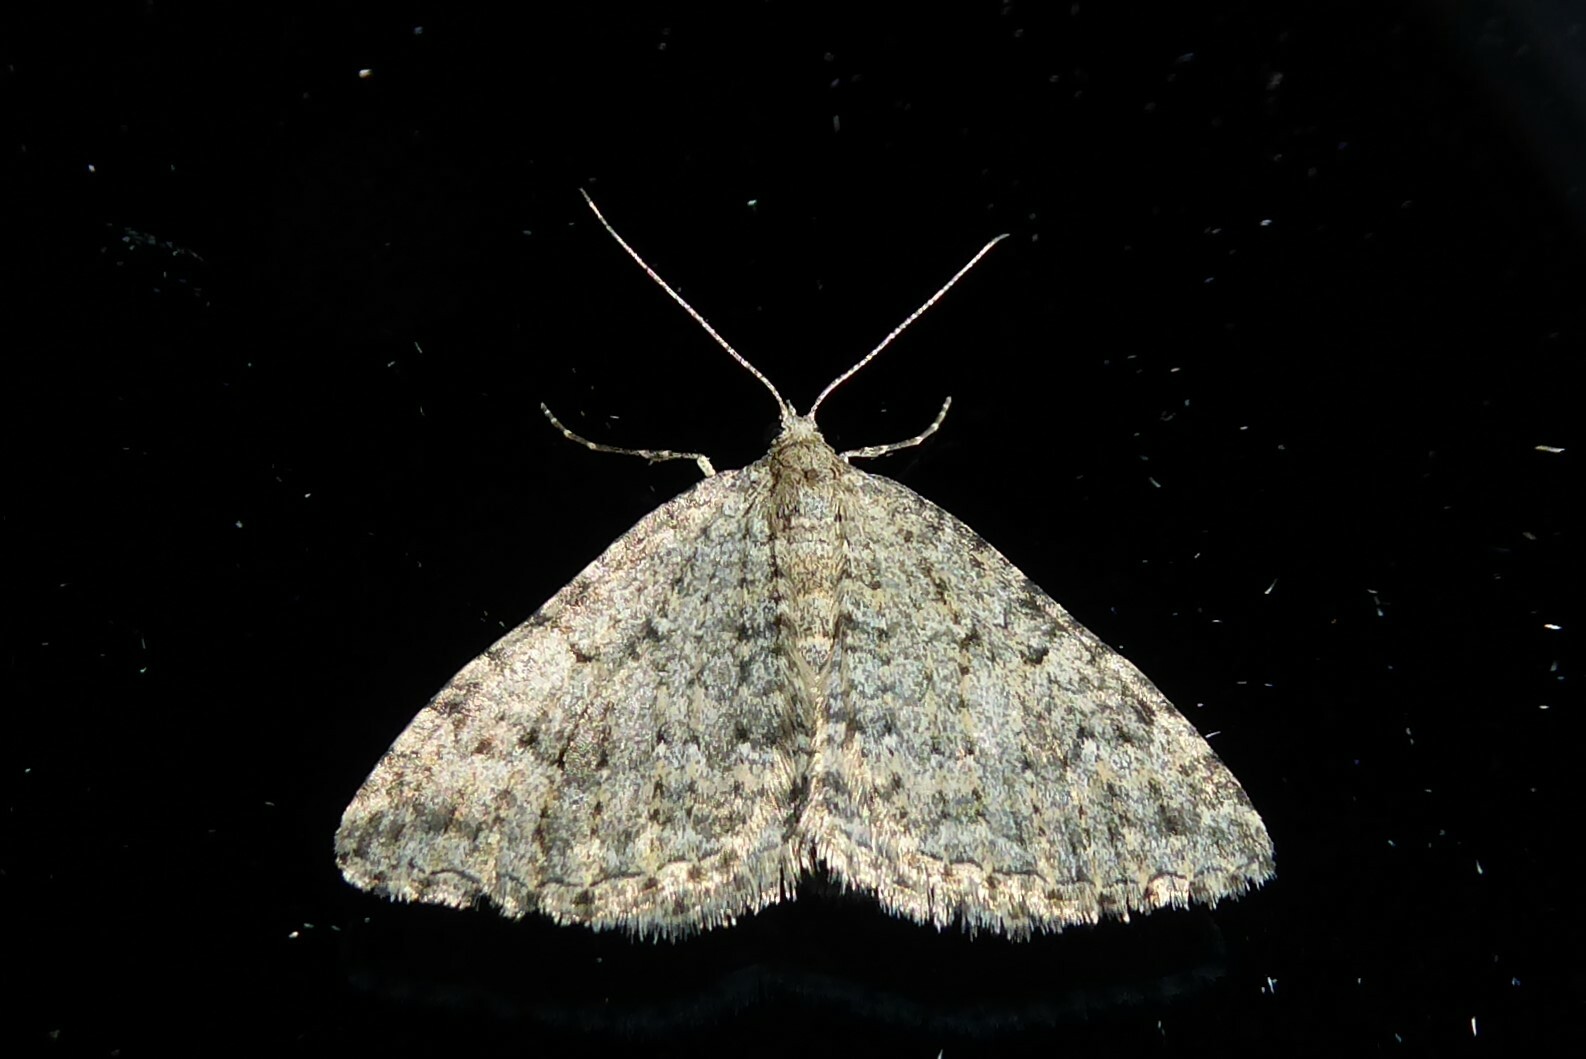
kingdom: Animalia
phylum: Arthropoda
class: Insecta
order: Lepidoptera
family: Geometridae
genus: Helastia
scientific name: Helastia corcularia
